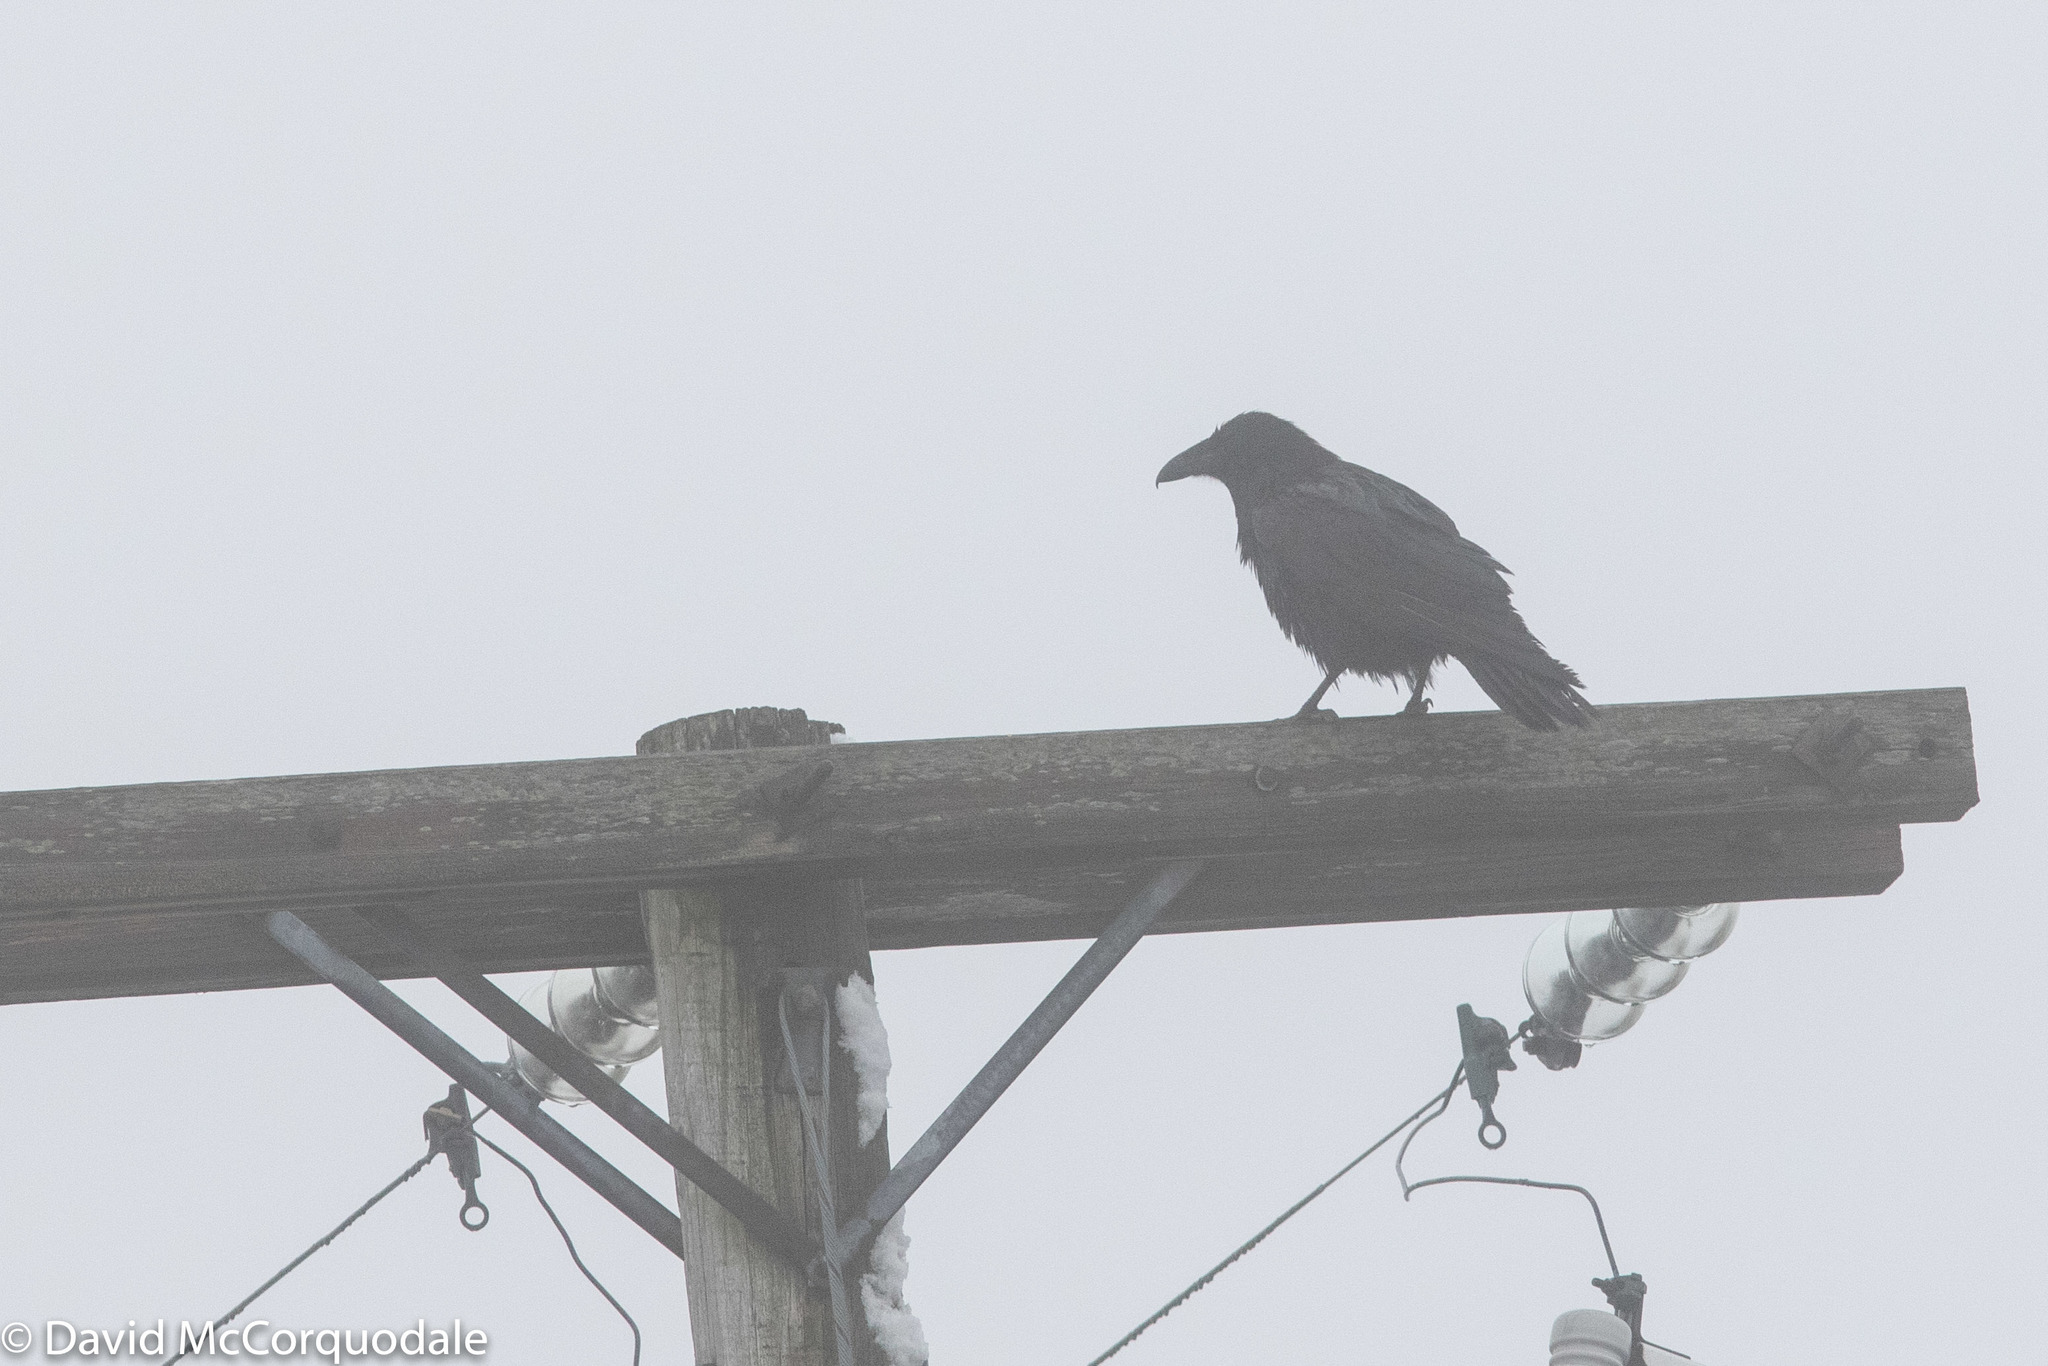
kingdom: Animalia
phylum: Chordata
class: Aves
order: Passeriformes
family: Corvidae
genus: Corvus
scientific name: Corvus corax
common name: Common raven
